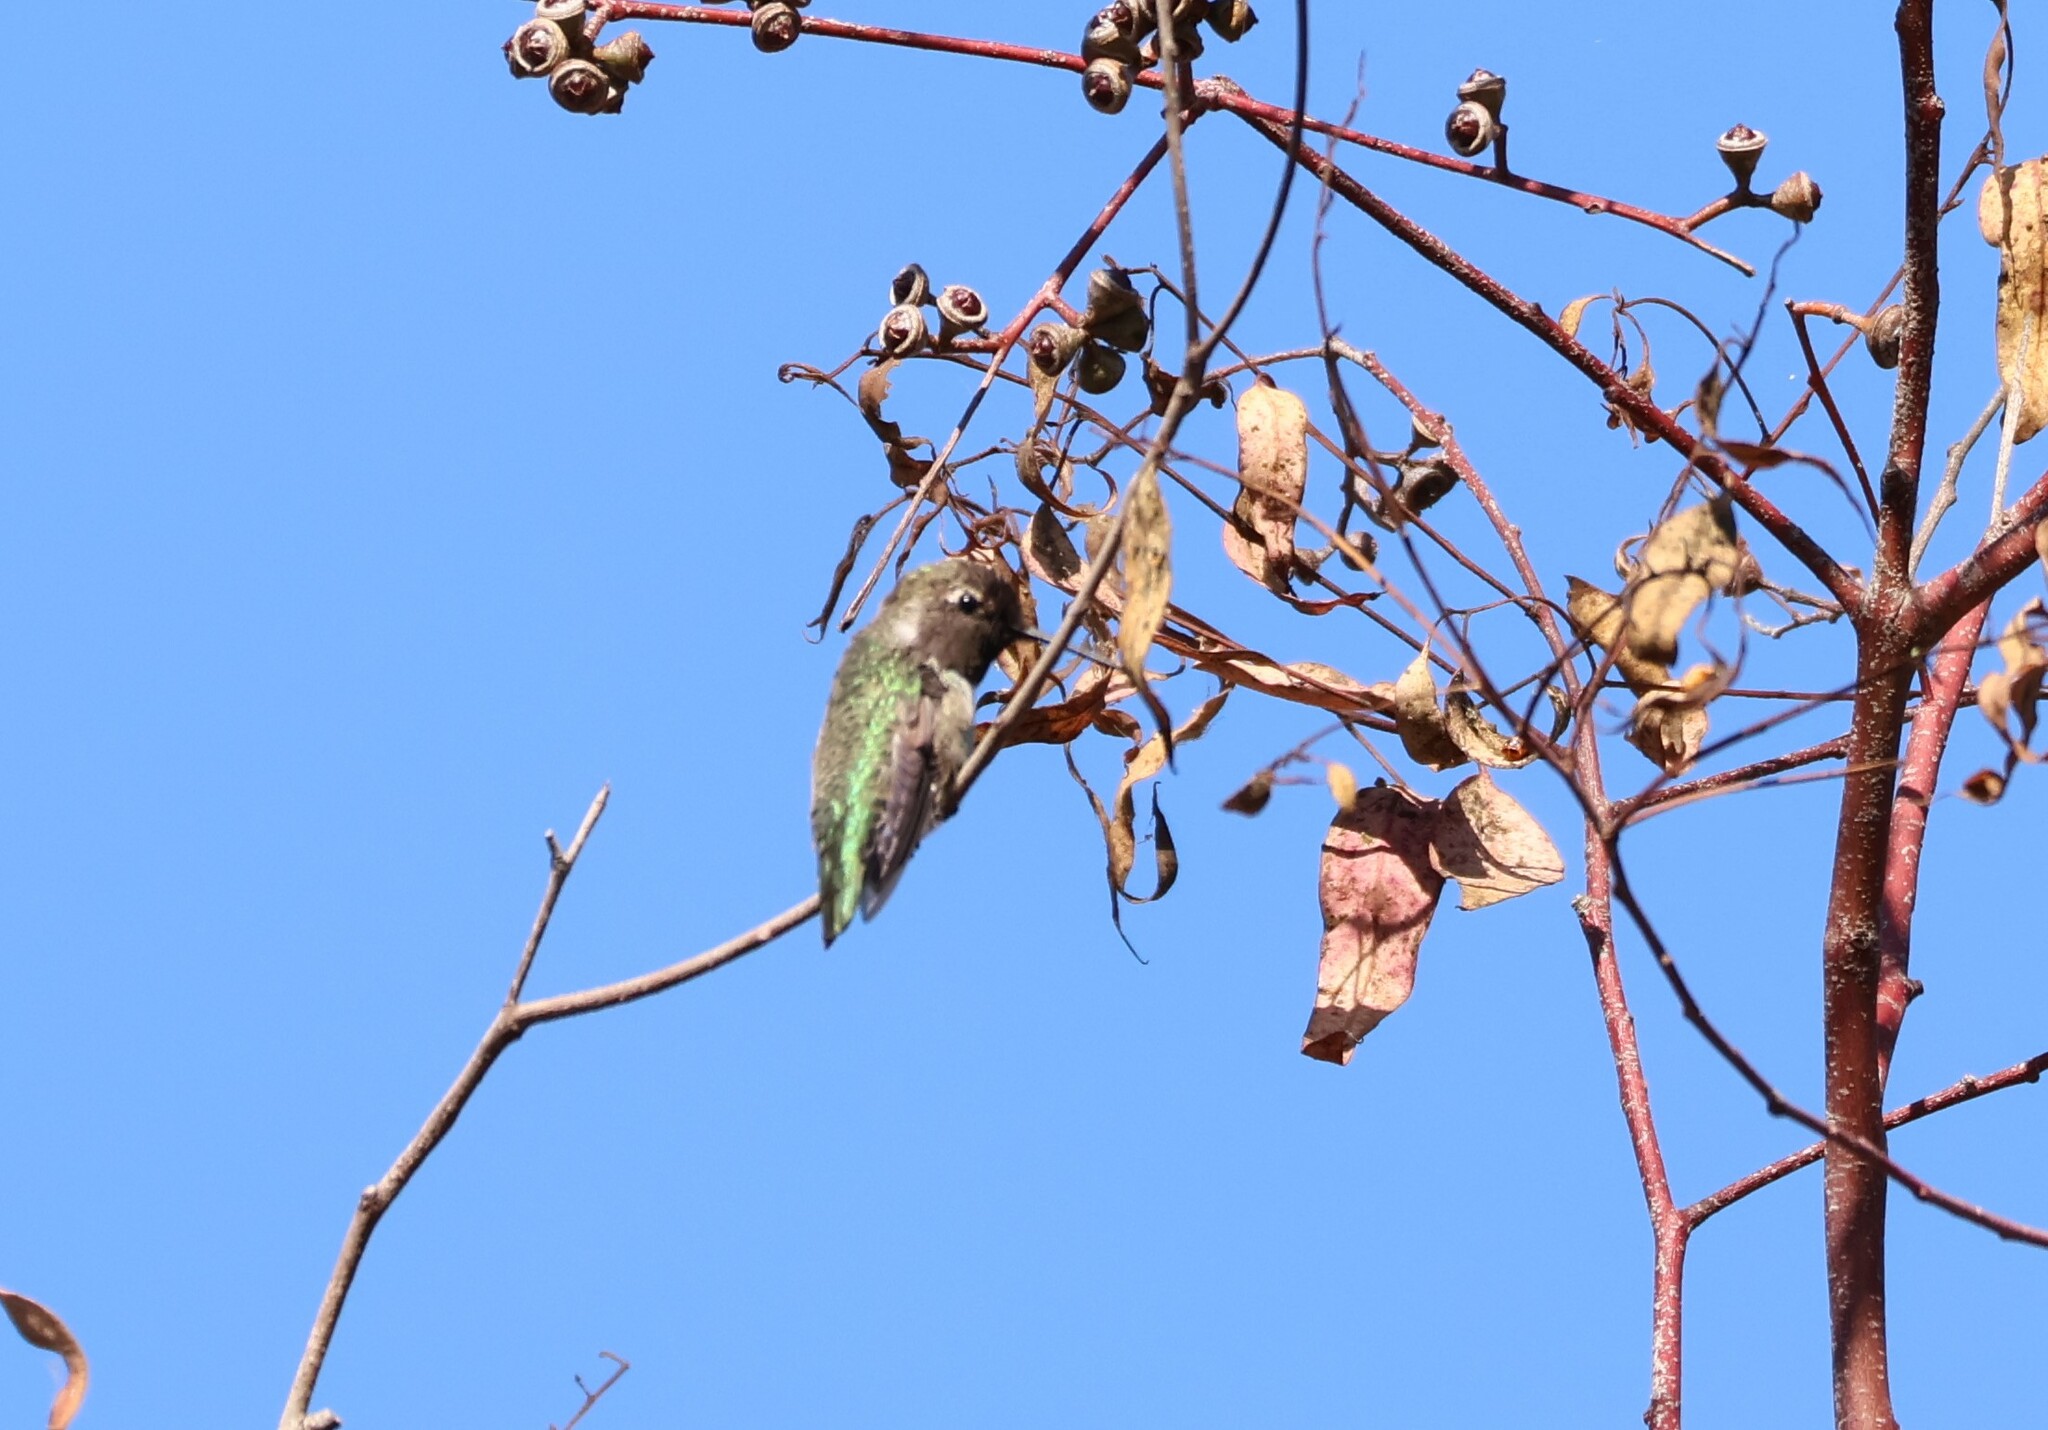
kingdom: Animalia
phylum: Chordata
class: Aves
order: Apodiformes
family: Trochilidae
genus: Calypte
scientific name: Calypte anna
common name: Anna's hummingbird
